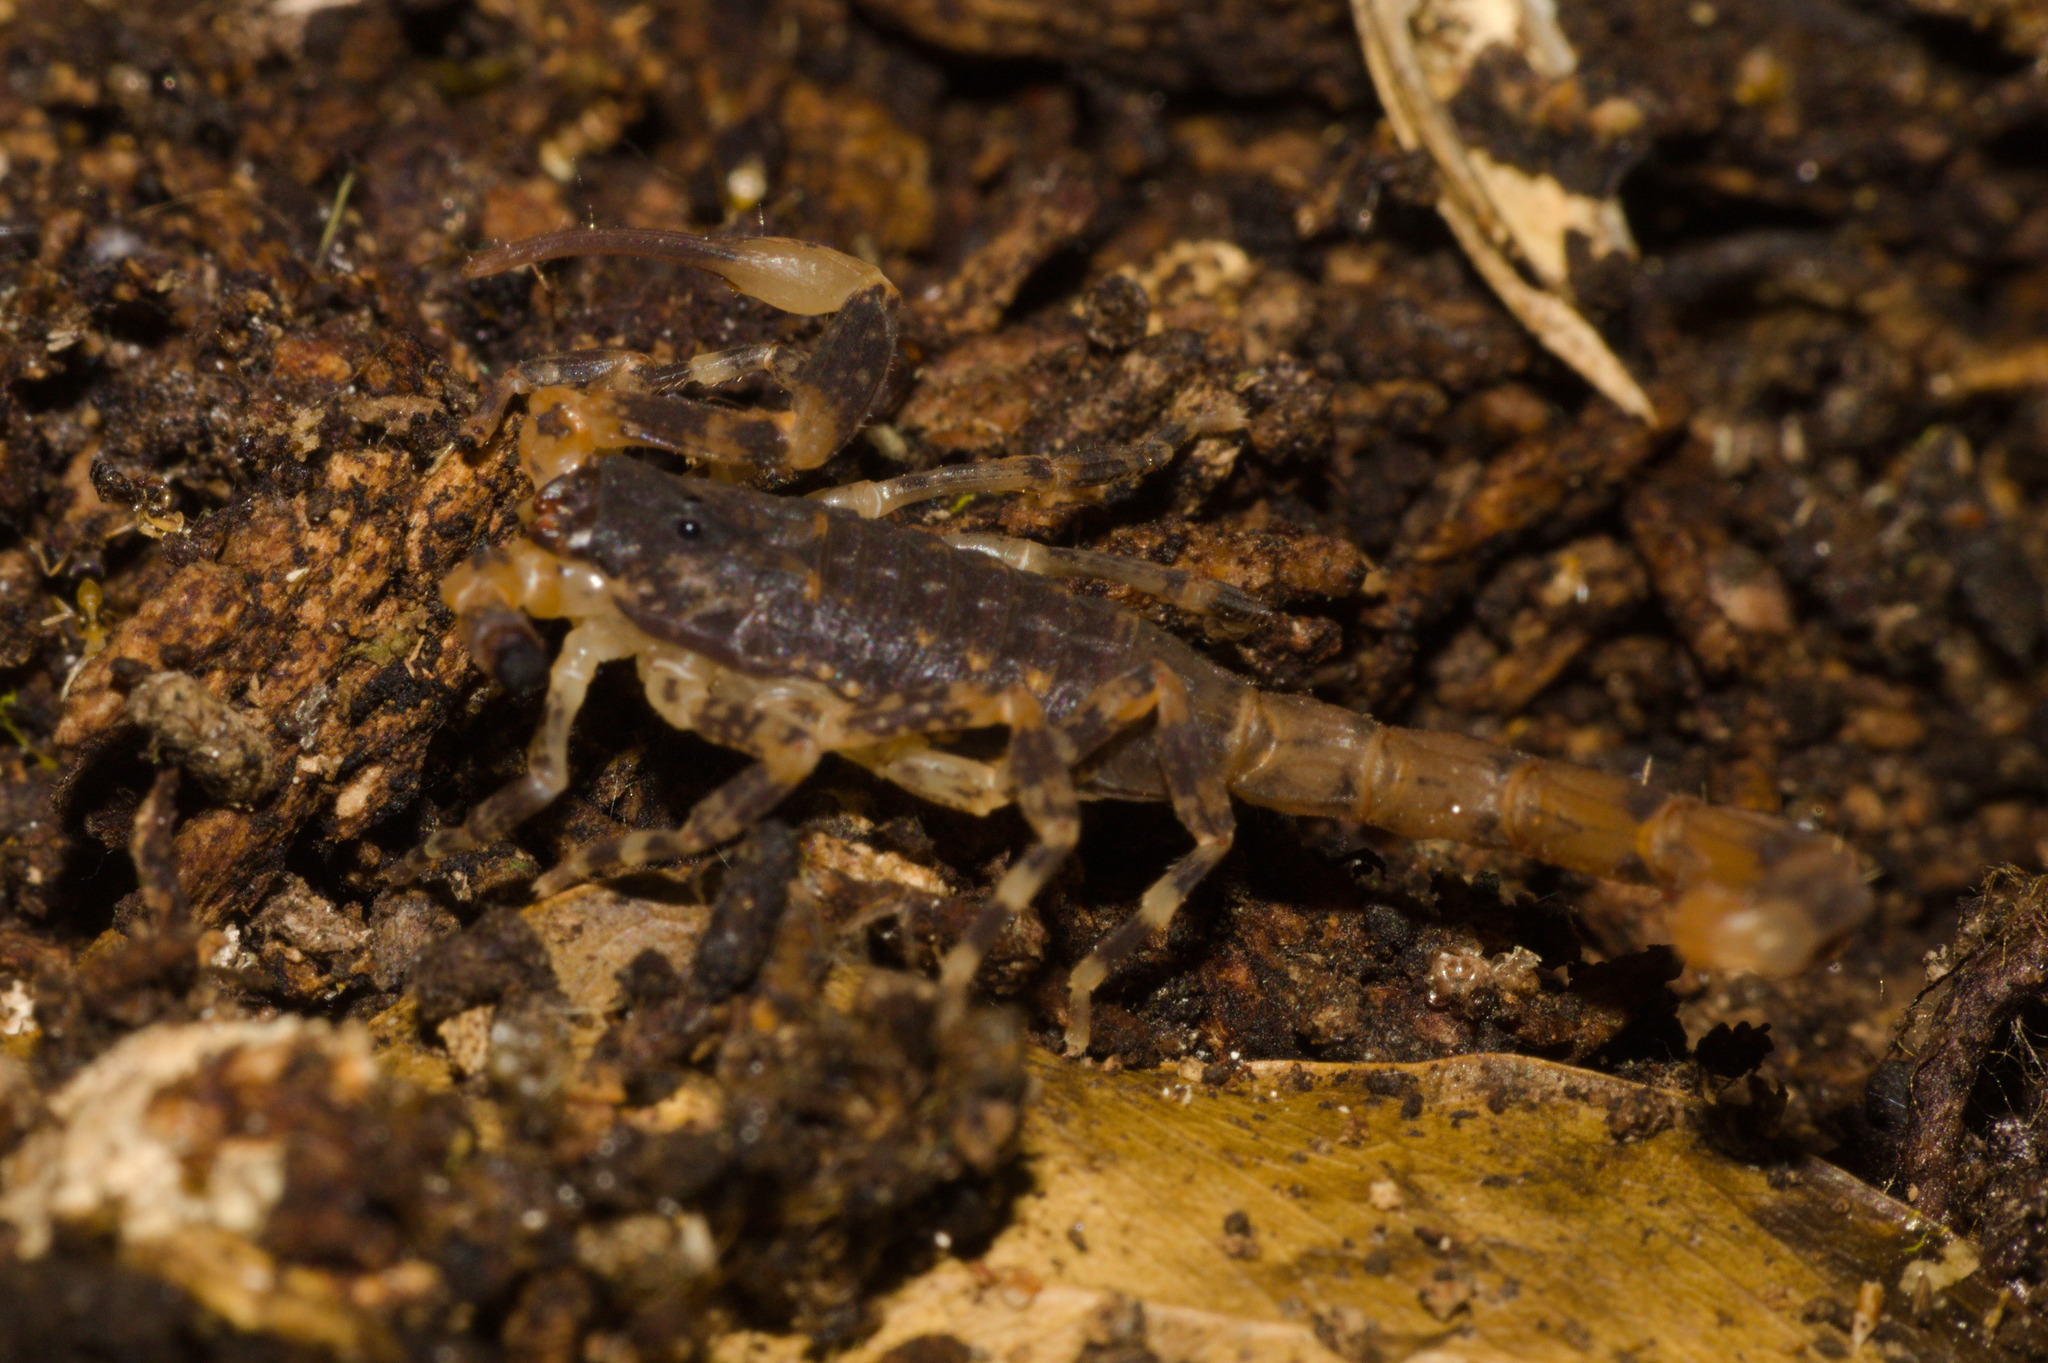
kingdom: Animalia
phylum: Arthropoda
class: Arachnida
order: Scorpiones
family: Buthidae
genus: Tityus
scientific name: Tityus costatus
